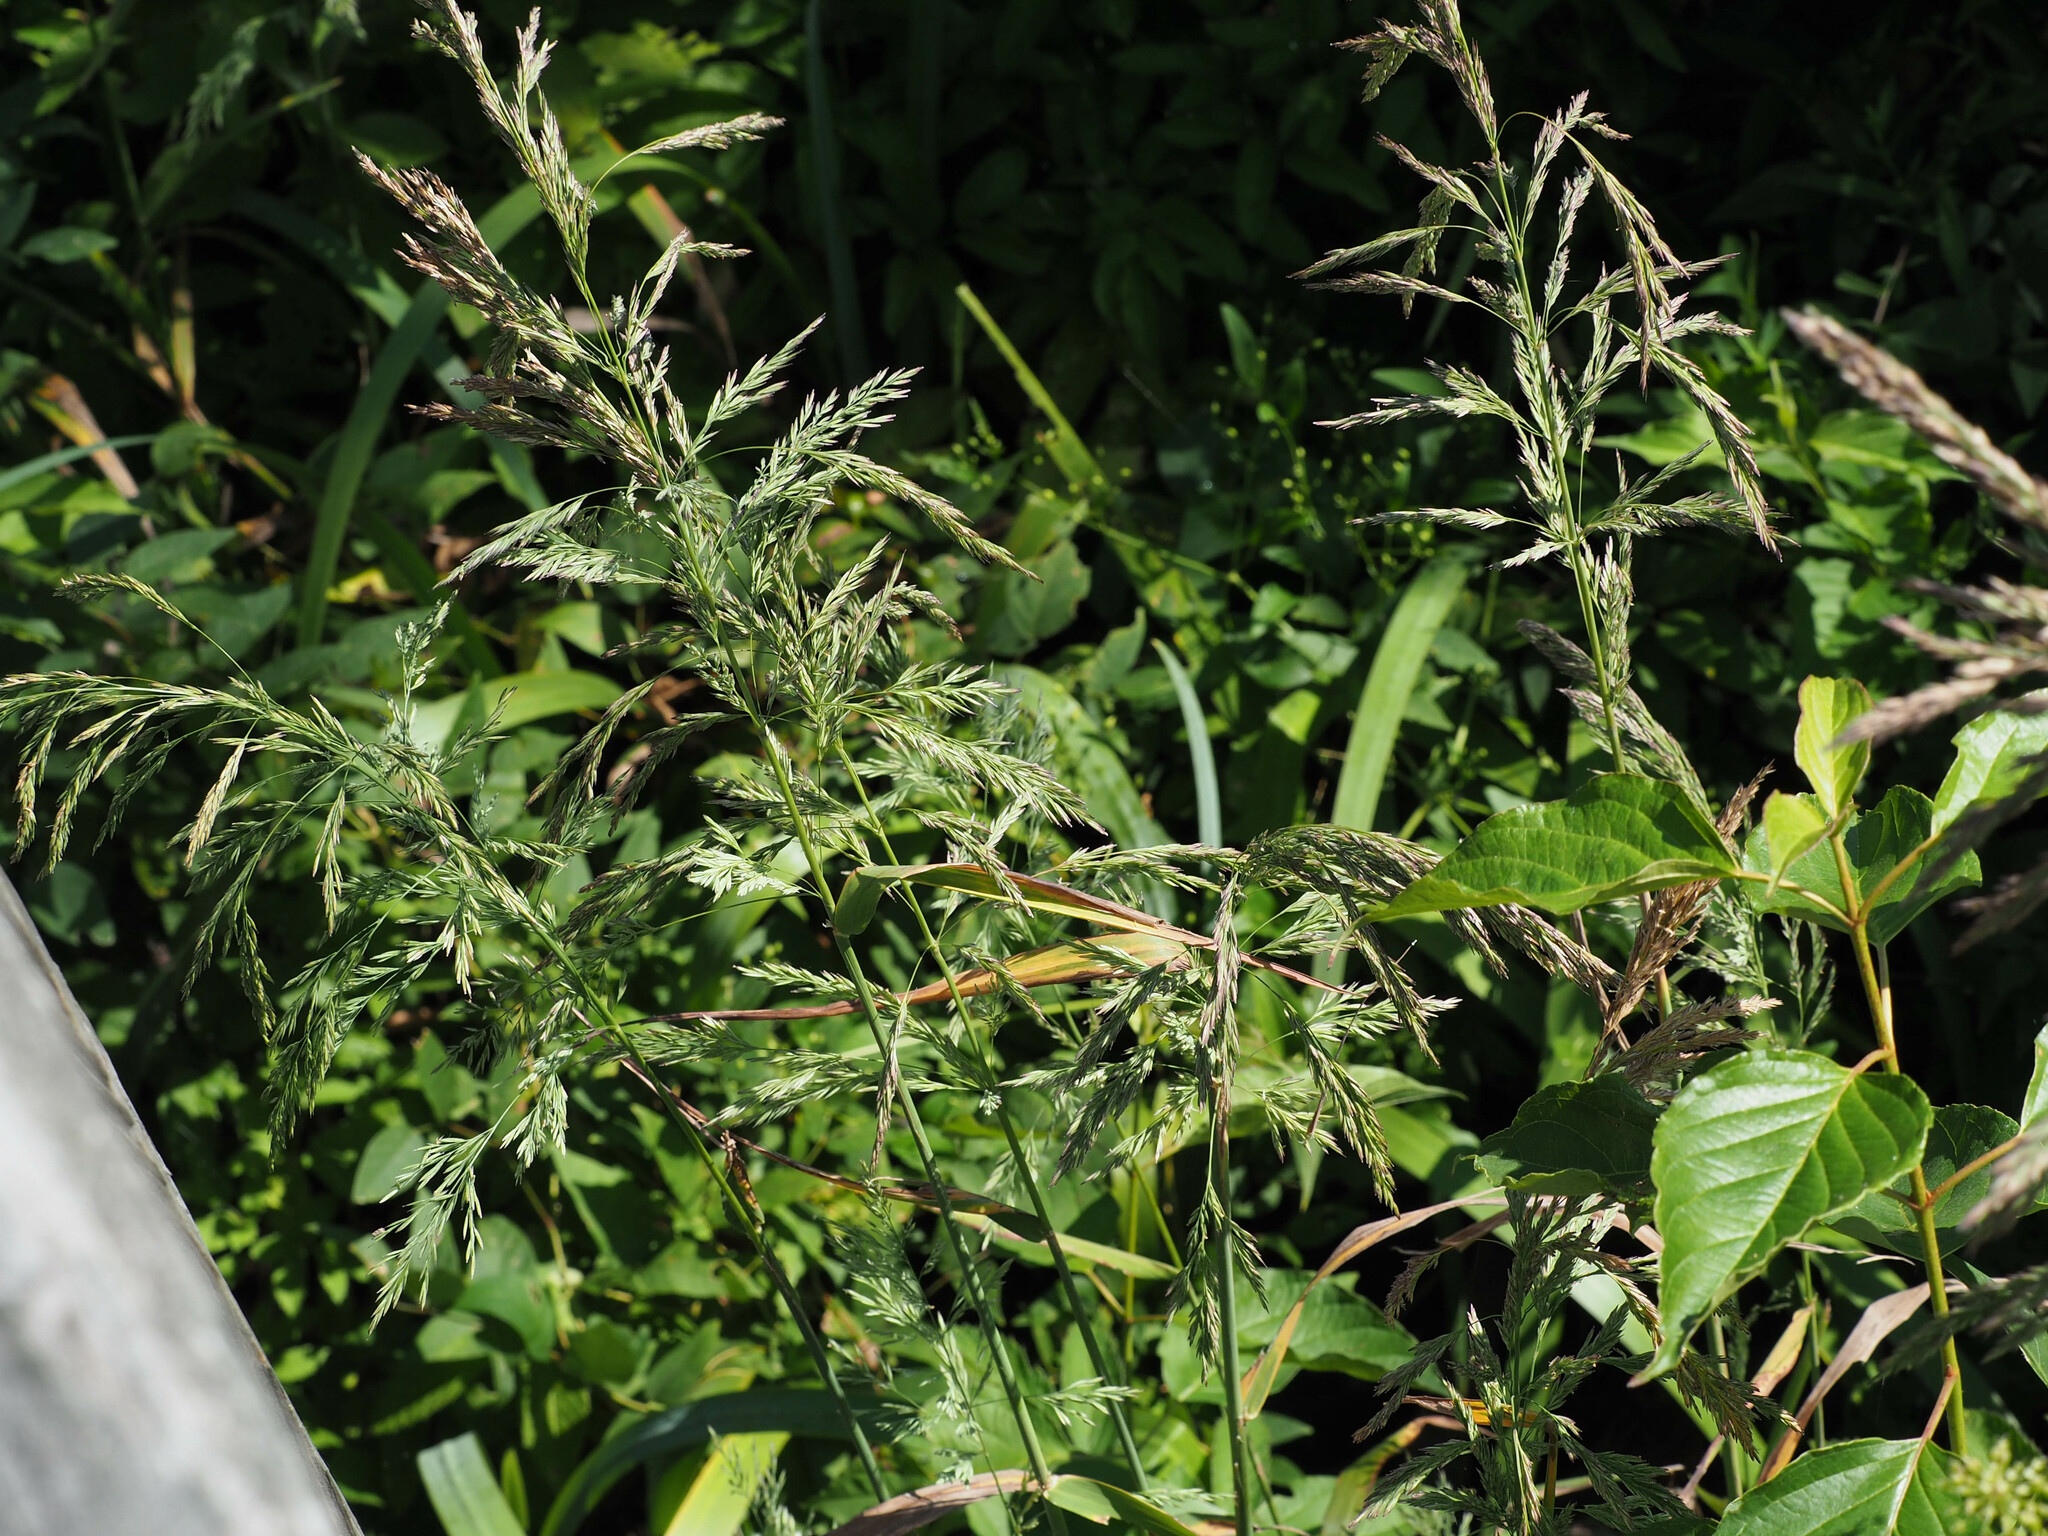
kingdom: Plantae
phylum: Tracheophyta
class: Liliopsida
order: Poales
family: Poaceae
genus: Cinna
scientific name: Cinna arundinacea
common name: Stout woodreed
